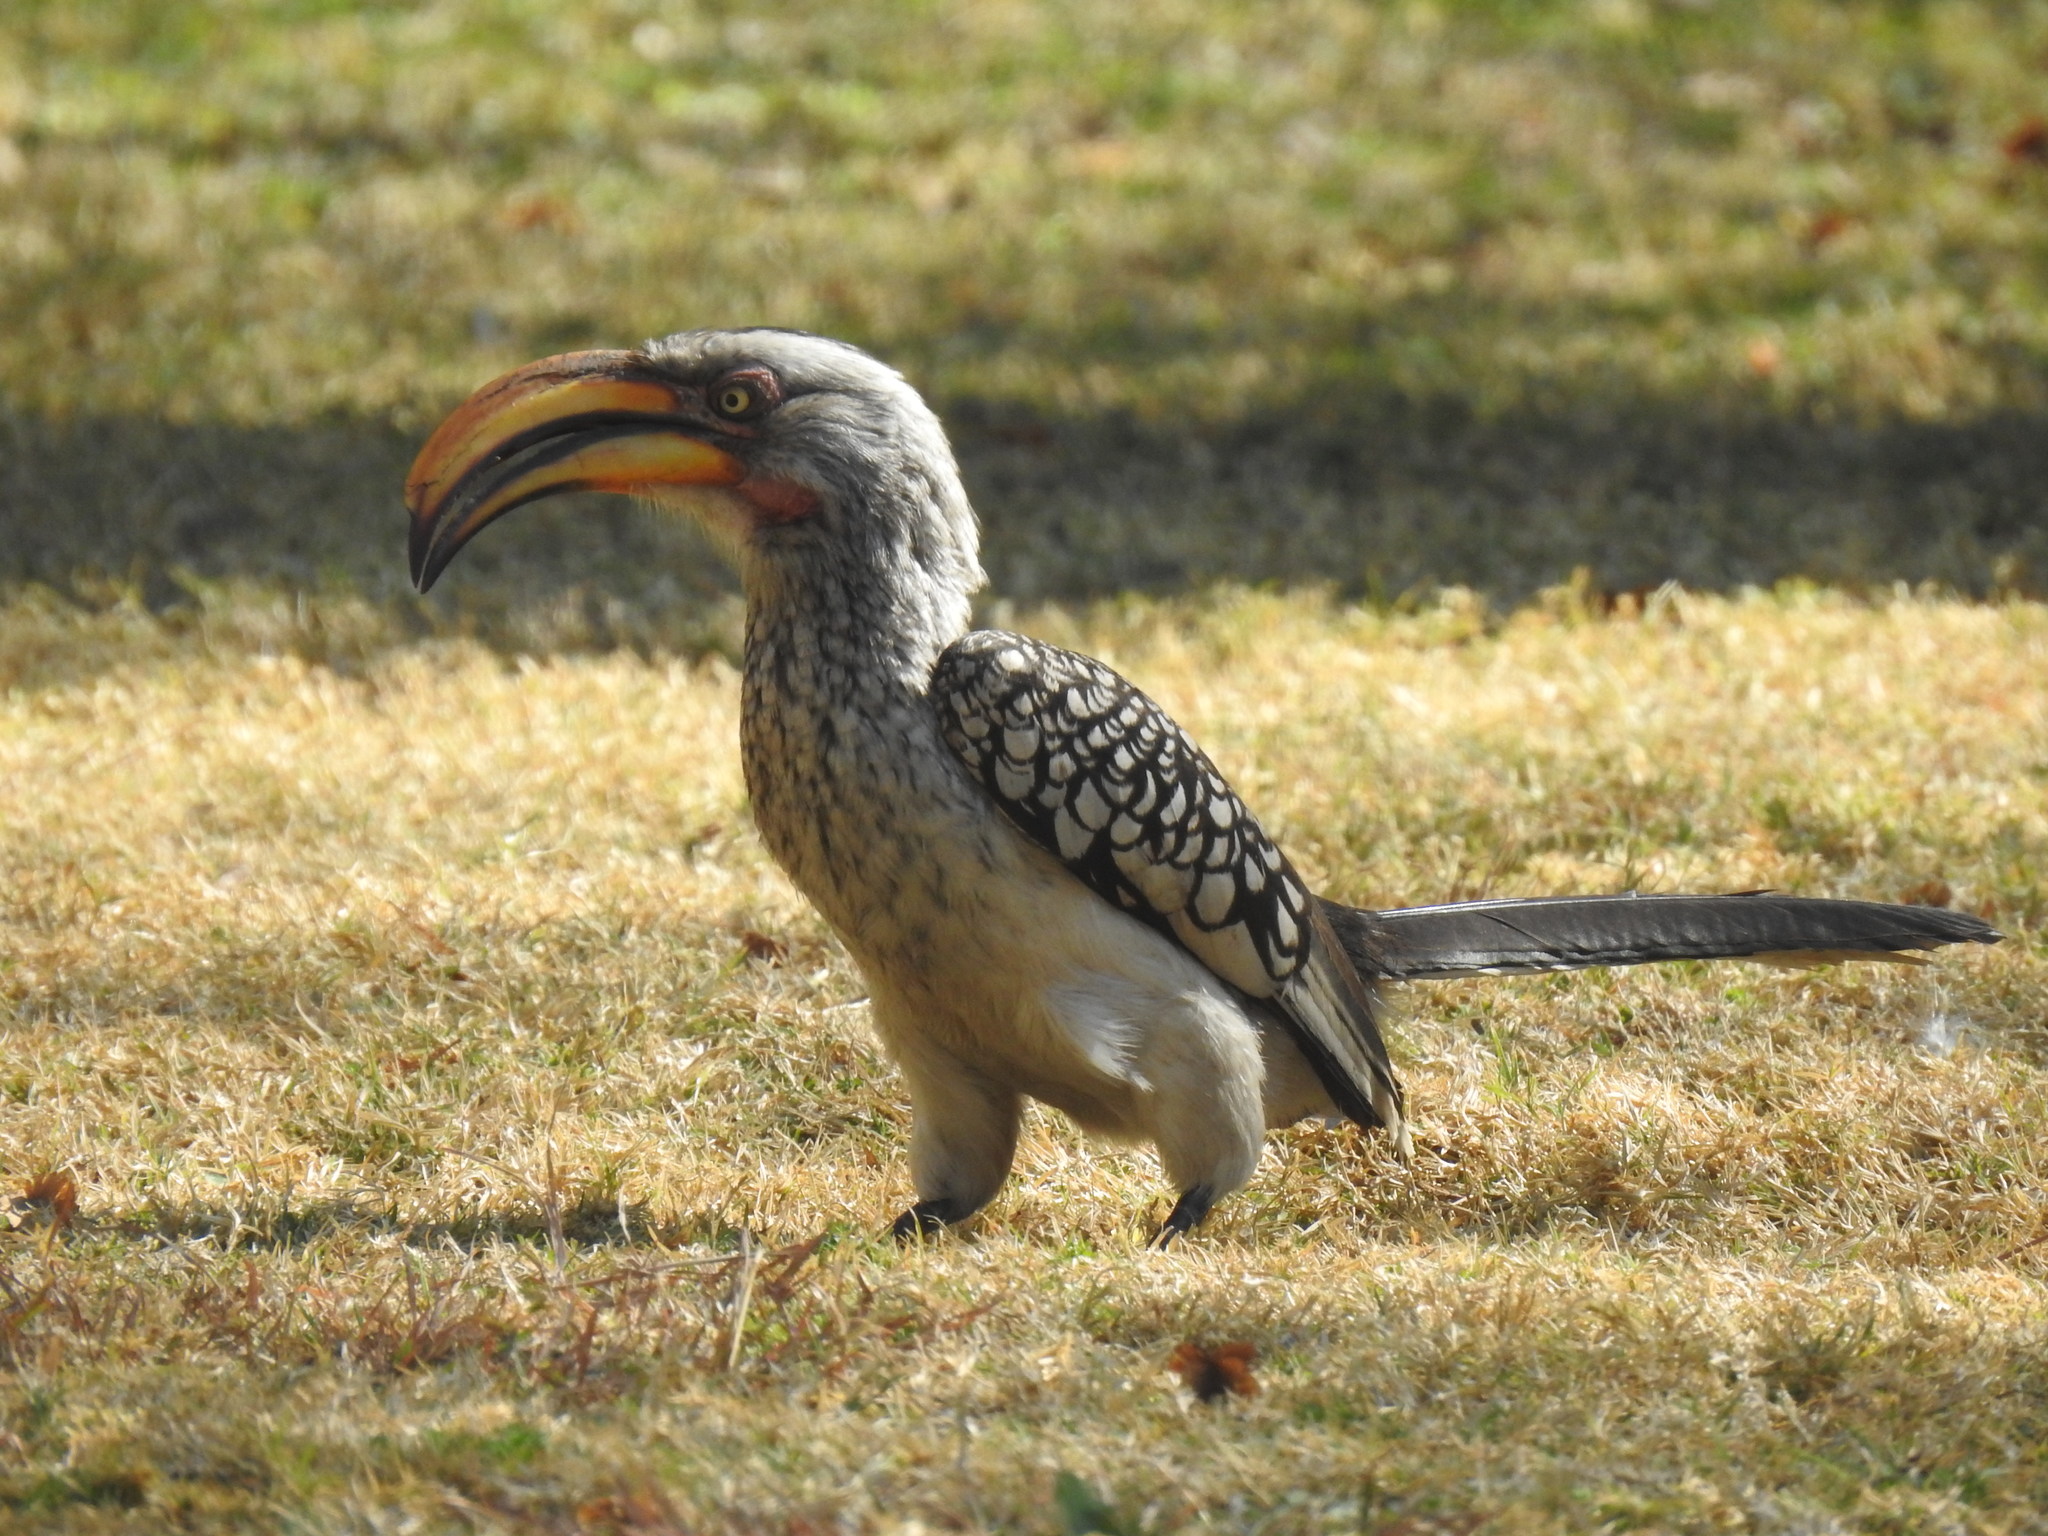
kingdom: Animalia
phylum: Chordata
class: Aves
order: Bucerotiformes
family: Bucerotidae
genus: Tockus
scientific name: Tockus leucomelas
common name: Southern yellow-billed hornbill
